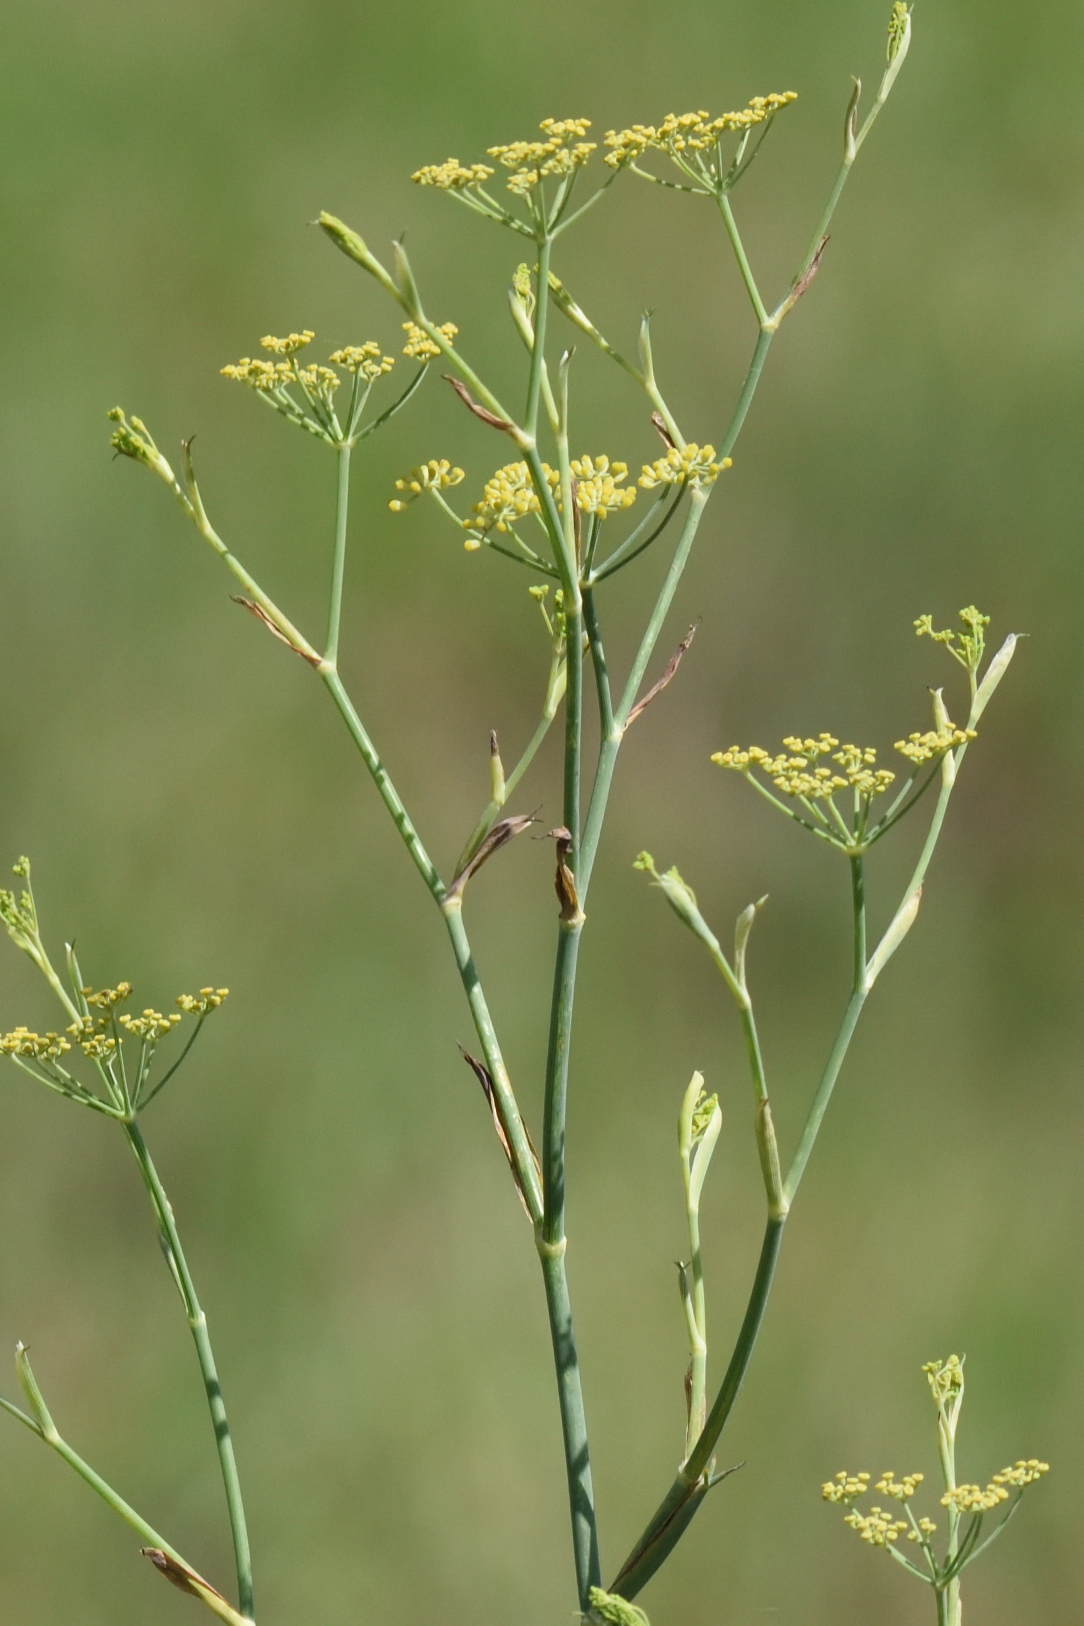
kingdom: Plantae
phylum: Tracheophyta
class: Magnoliopsida
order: Apiales
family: Apiaceae
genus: Foeniculum
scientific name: Foeniculum vulgare
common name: Fennel
